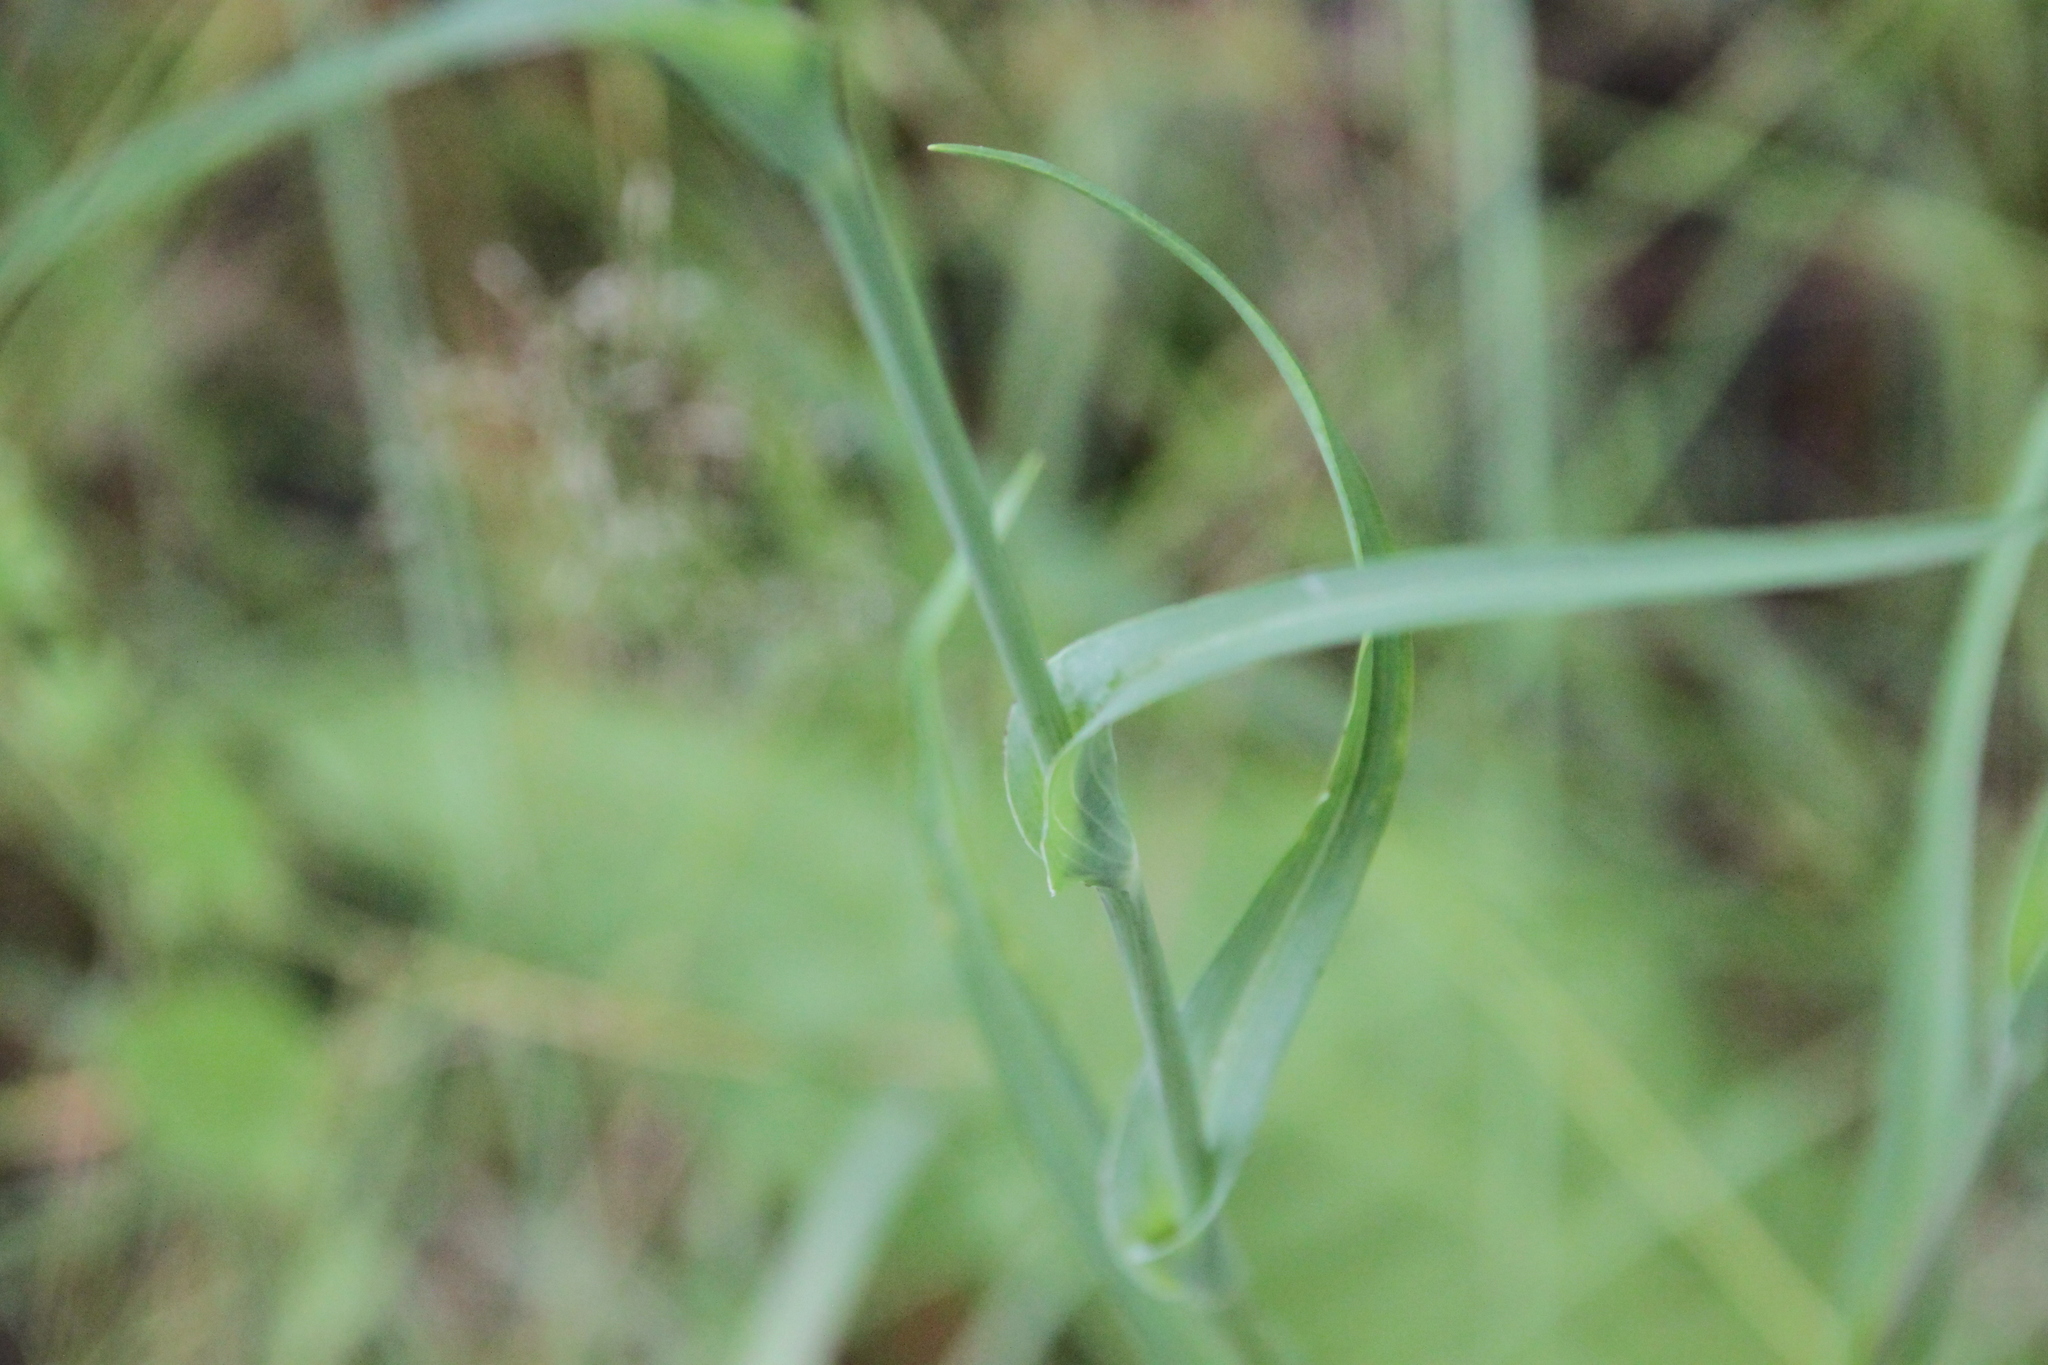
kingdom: Plantae
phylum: Tracheophyta
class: Magnoliopsida
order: Asterales
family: Asteraceae
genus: Tragopogon
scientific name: Tragopogon orientalis
